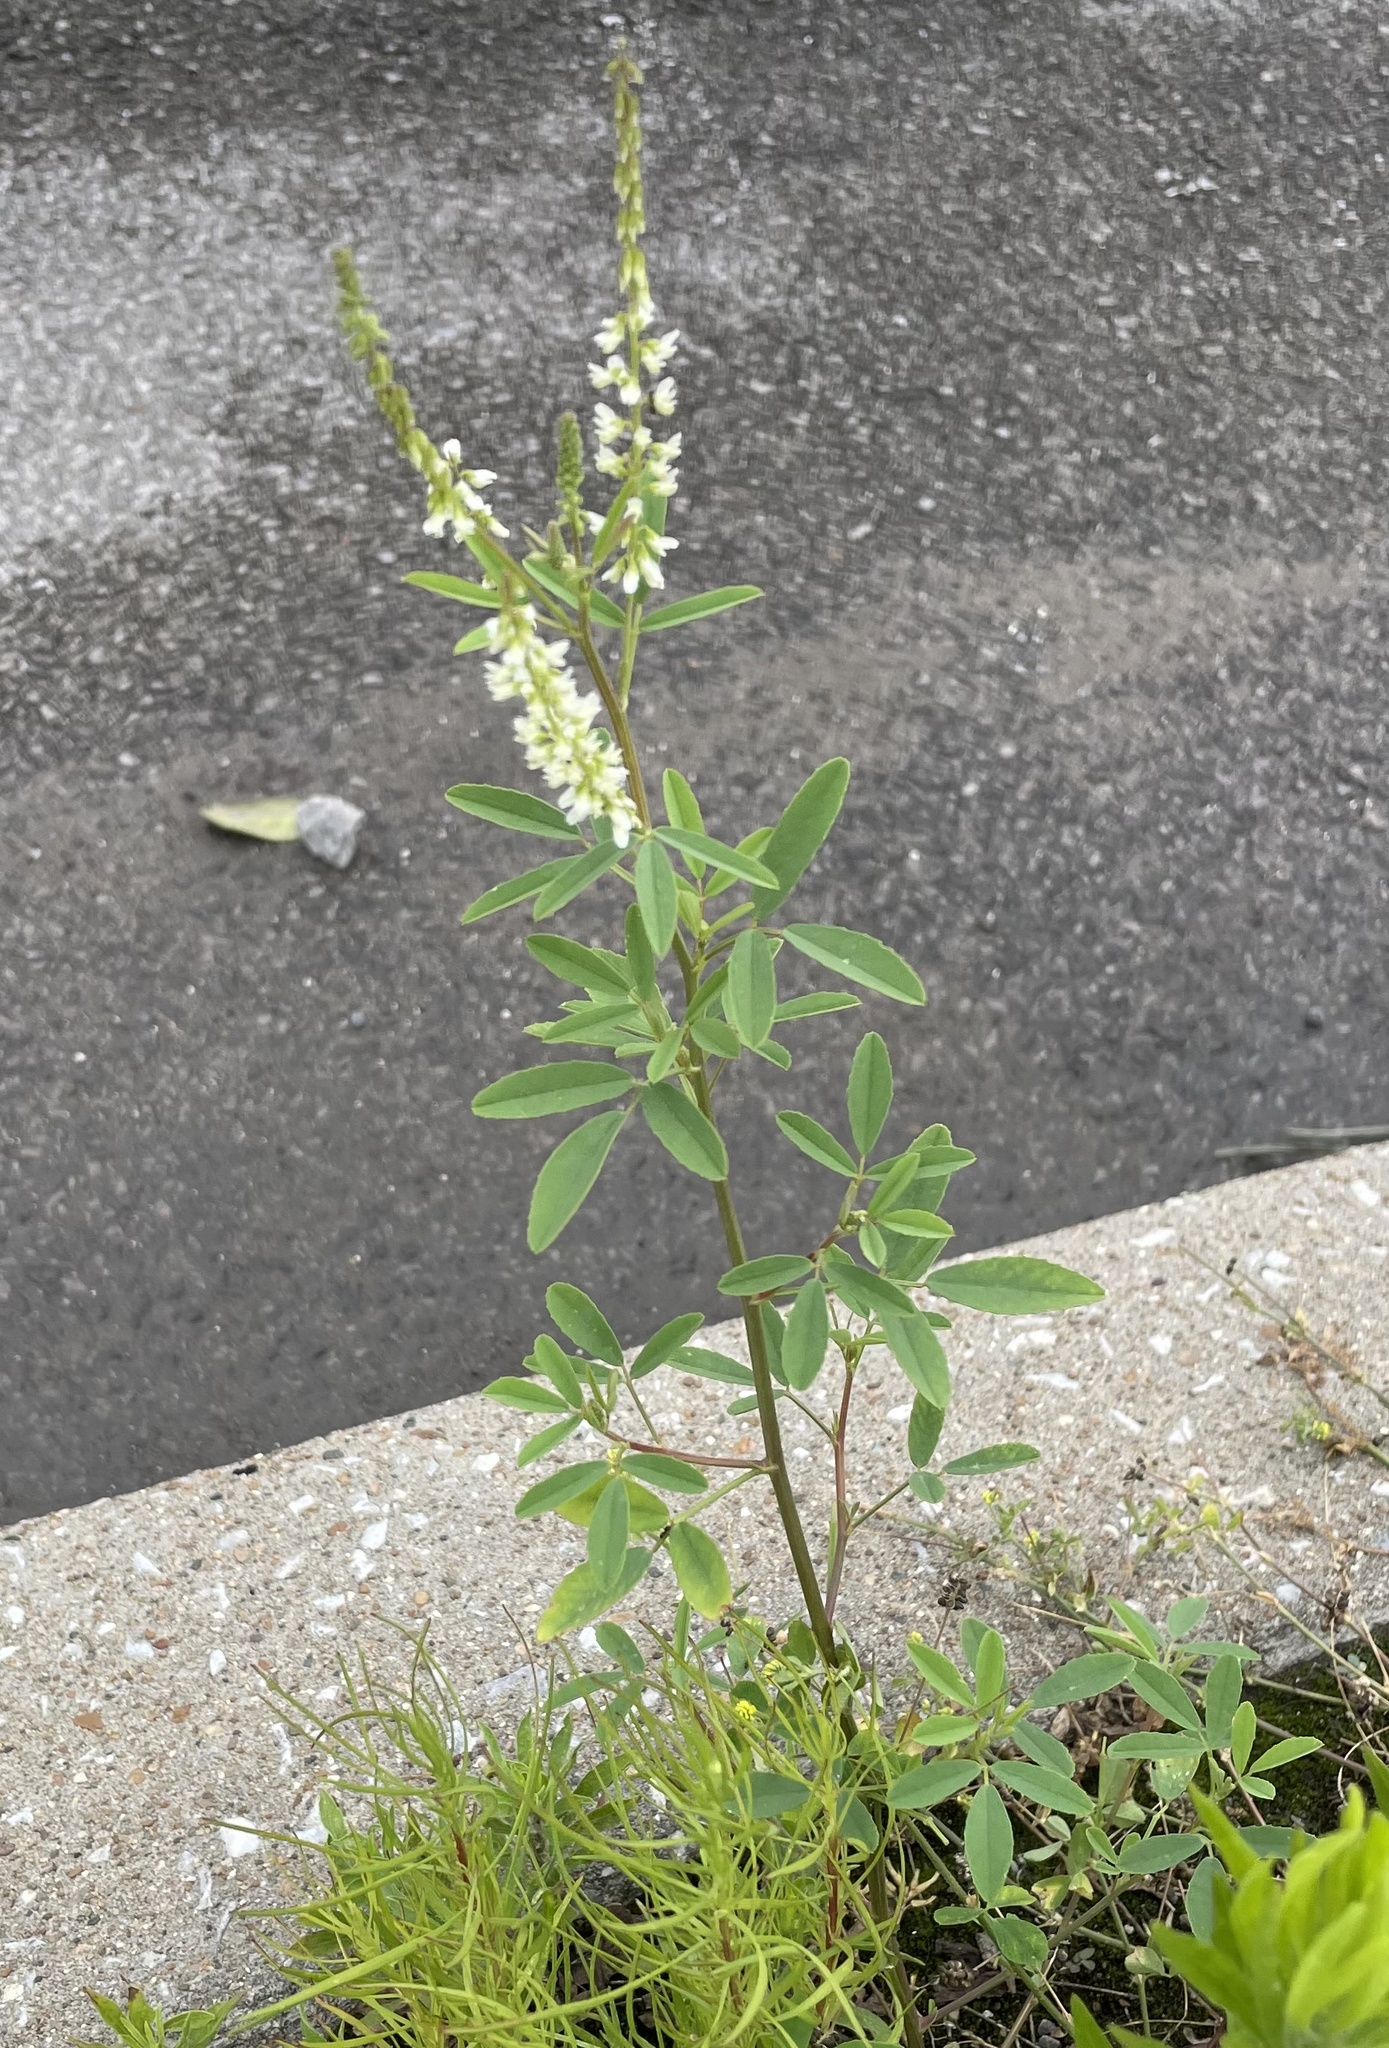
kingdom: Plantae
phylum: Tracheophyta
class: Magnoliopsida
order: Fabales
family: Fabaceae
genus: Melilotus
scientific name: Melilotus albus
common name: White melilot
